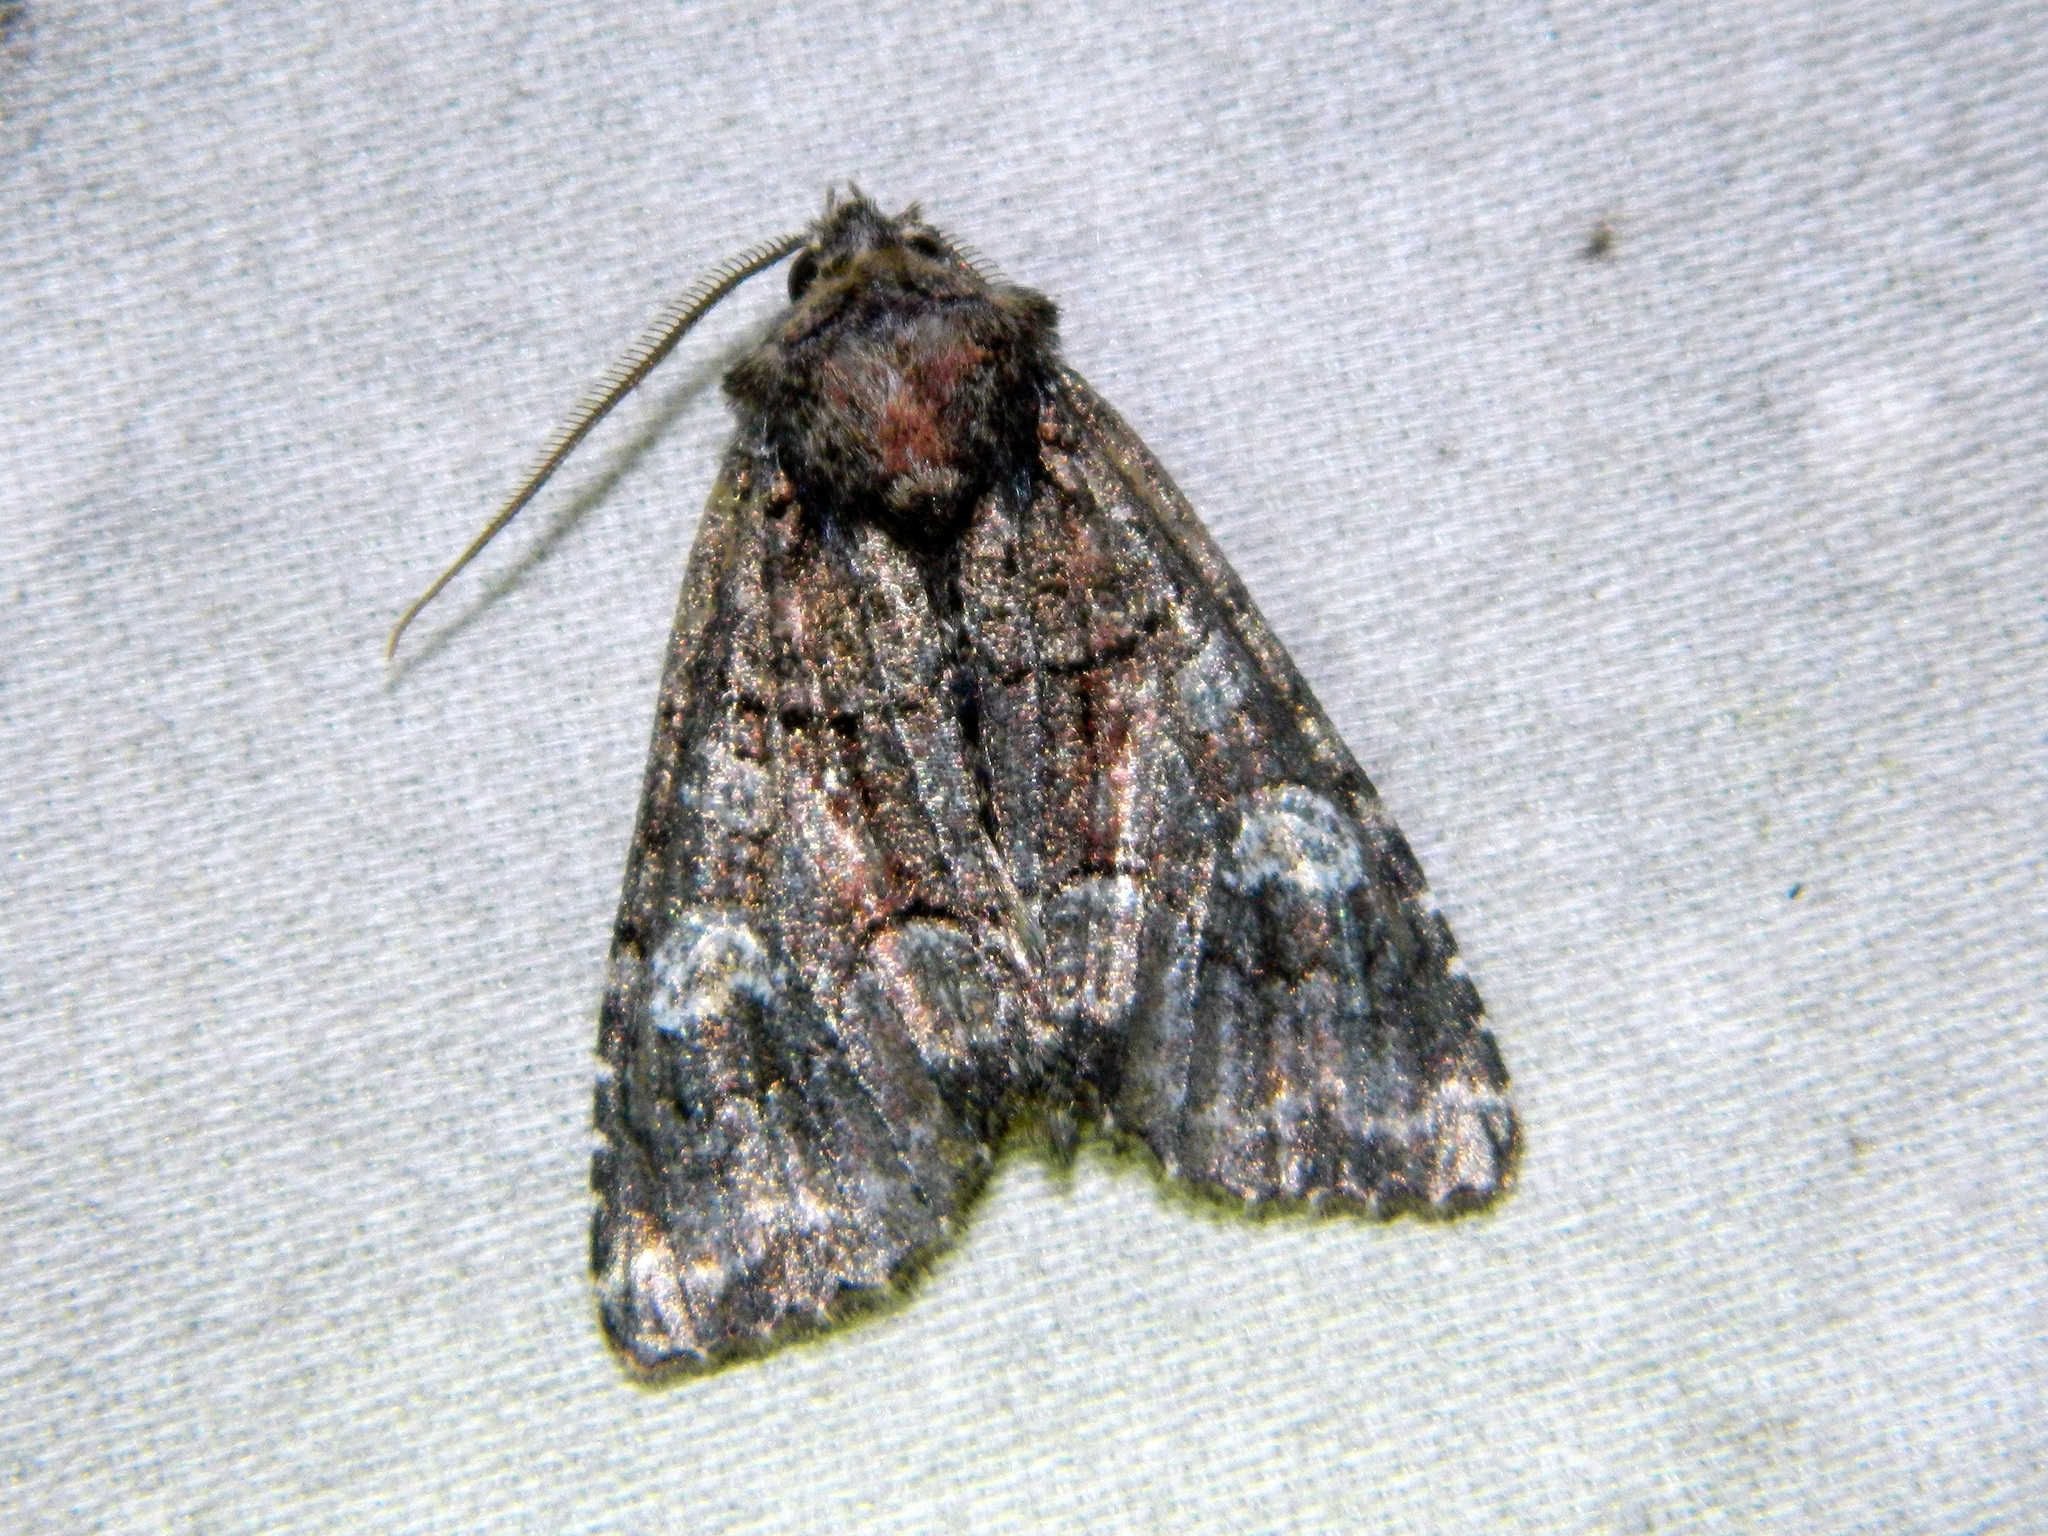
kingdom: Animalia
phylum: Arthropoda
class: Insecta
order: Lepidoptera
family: Noctuidae
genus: Fishia
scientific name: Fishia illocata
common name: Wandering brocade moth
